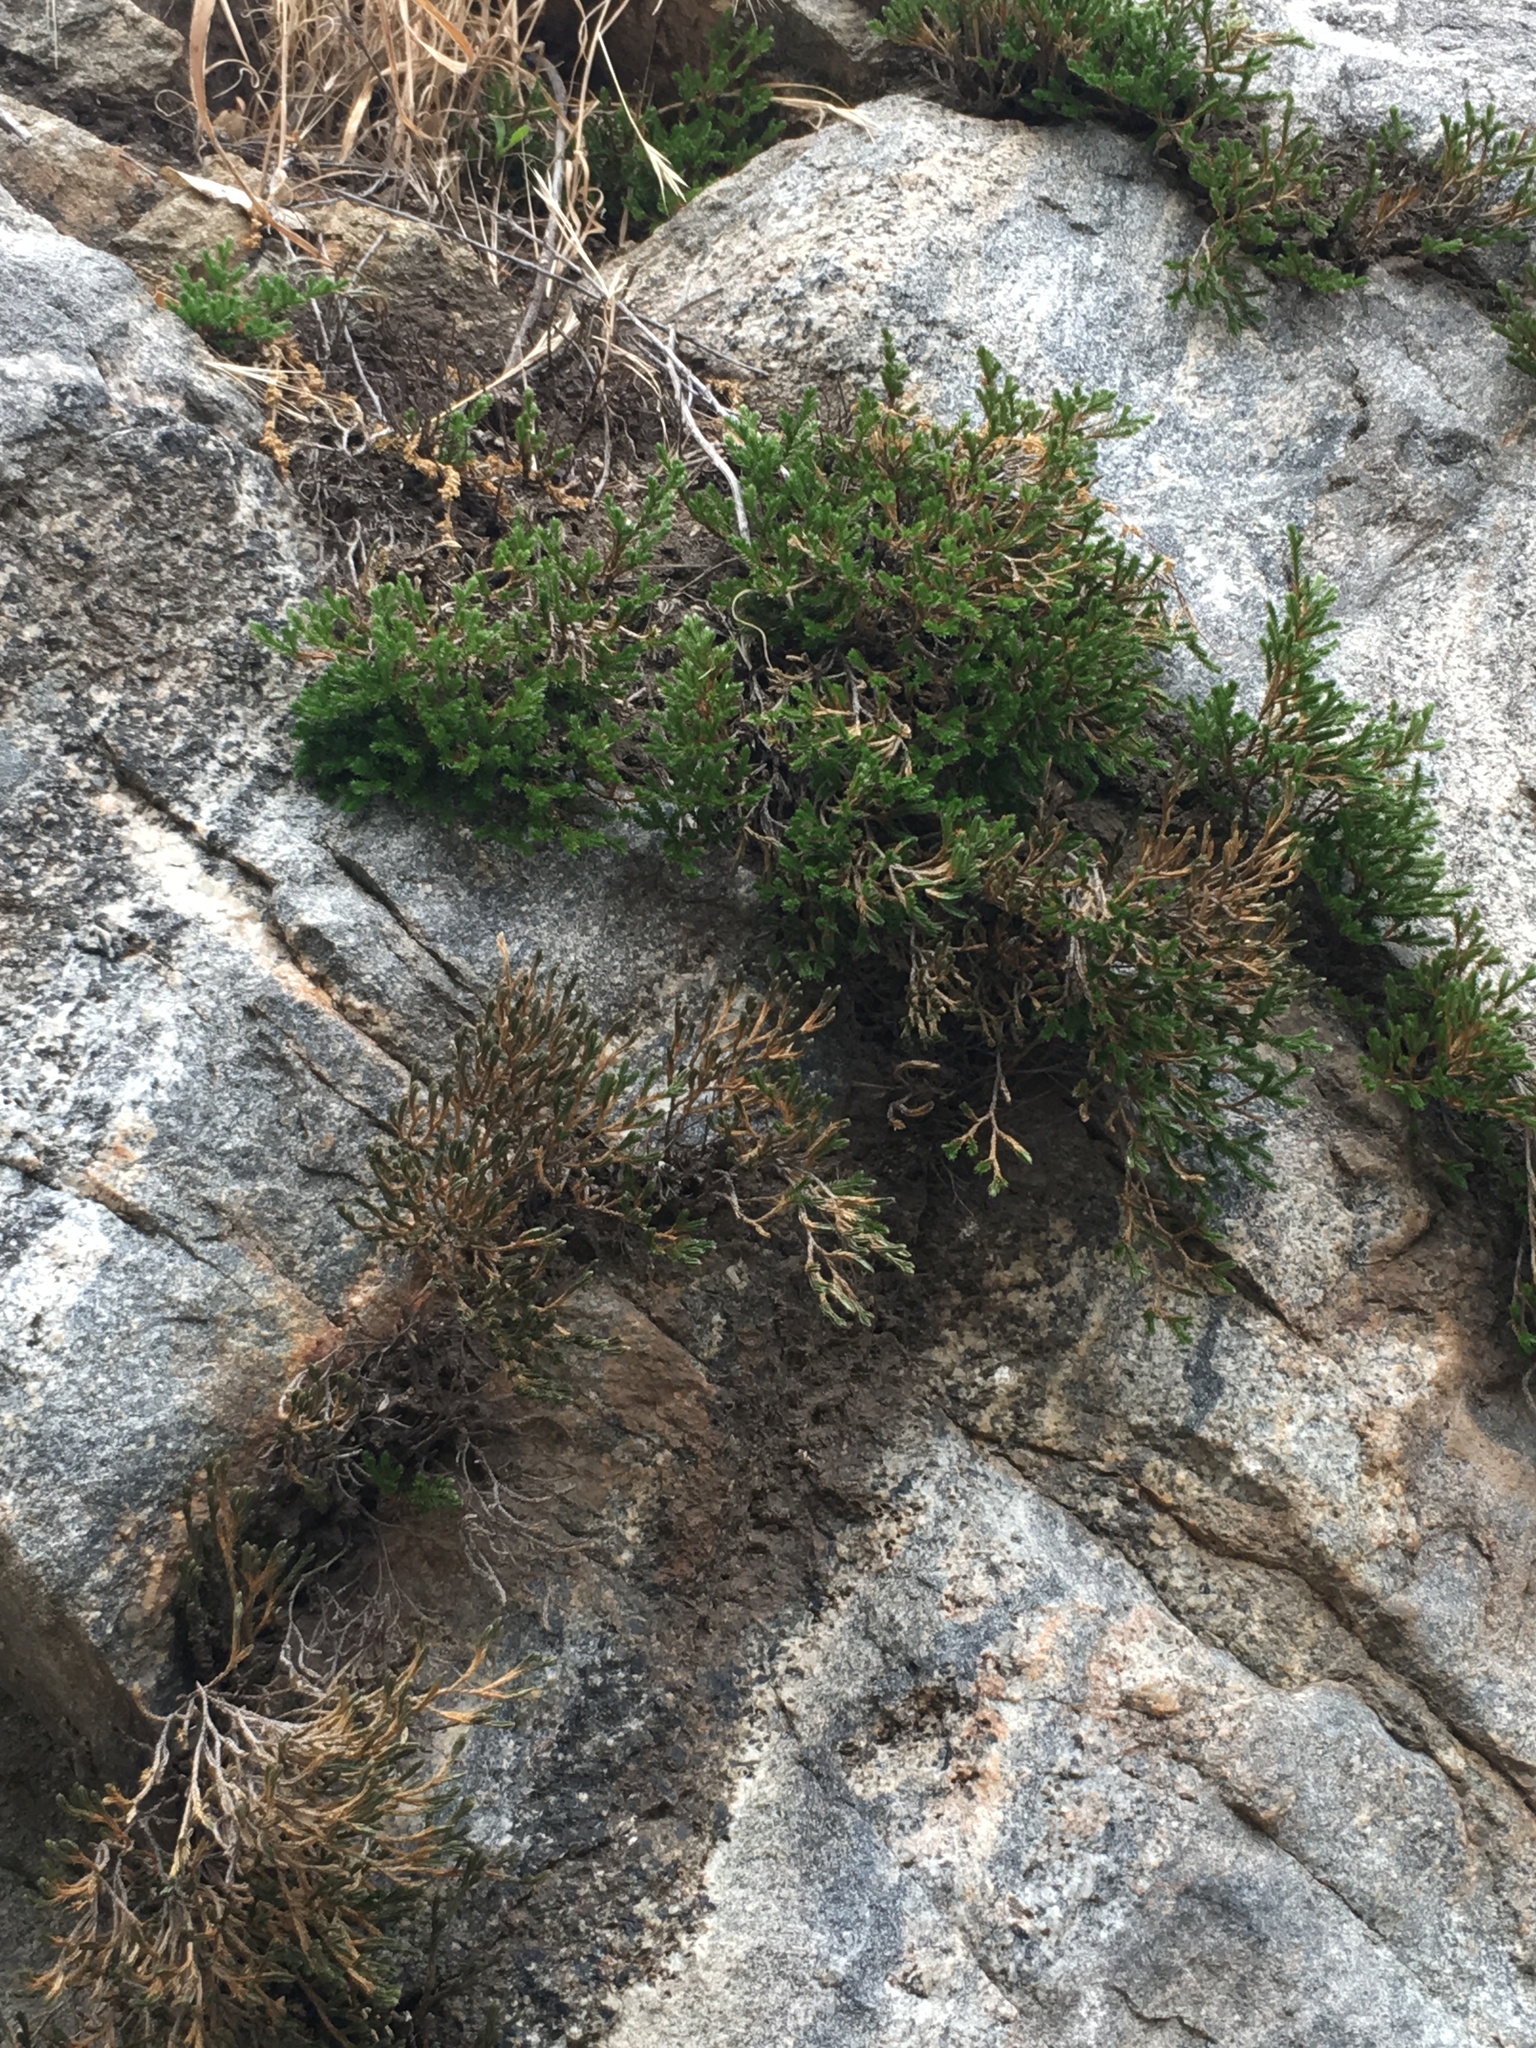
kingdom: Plantae
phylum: Tracheophyta
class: Lycopodiopsida
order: Selaginellales
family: Selaginellaceae
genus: Selaginella
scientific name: Selaginella bigelovii
